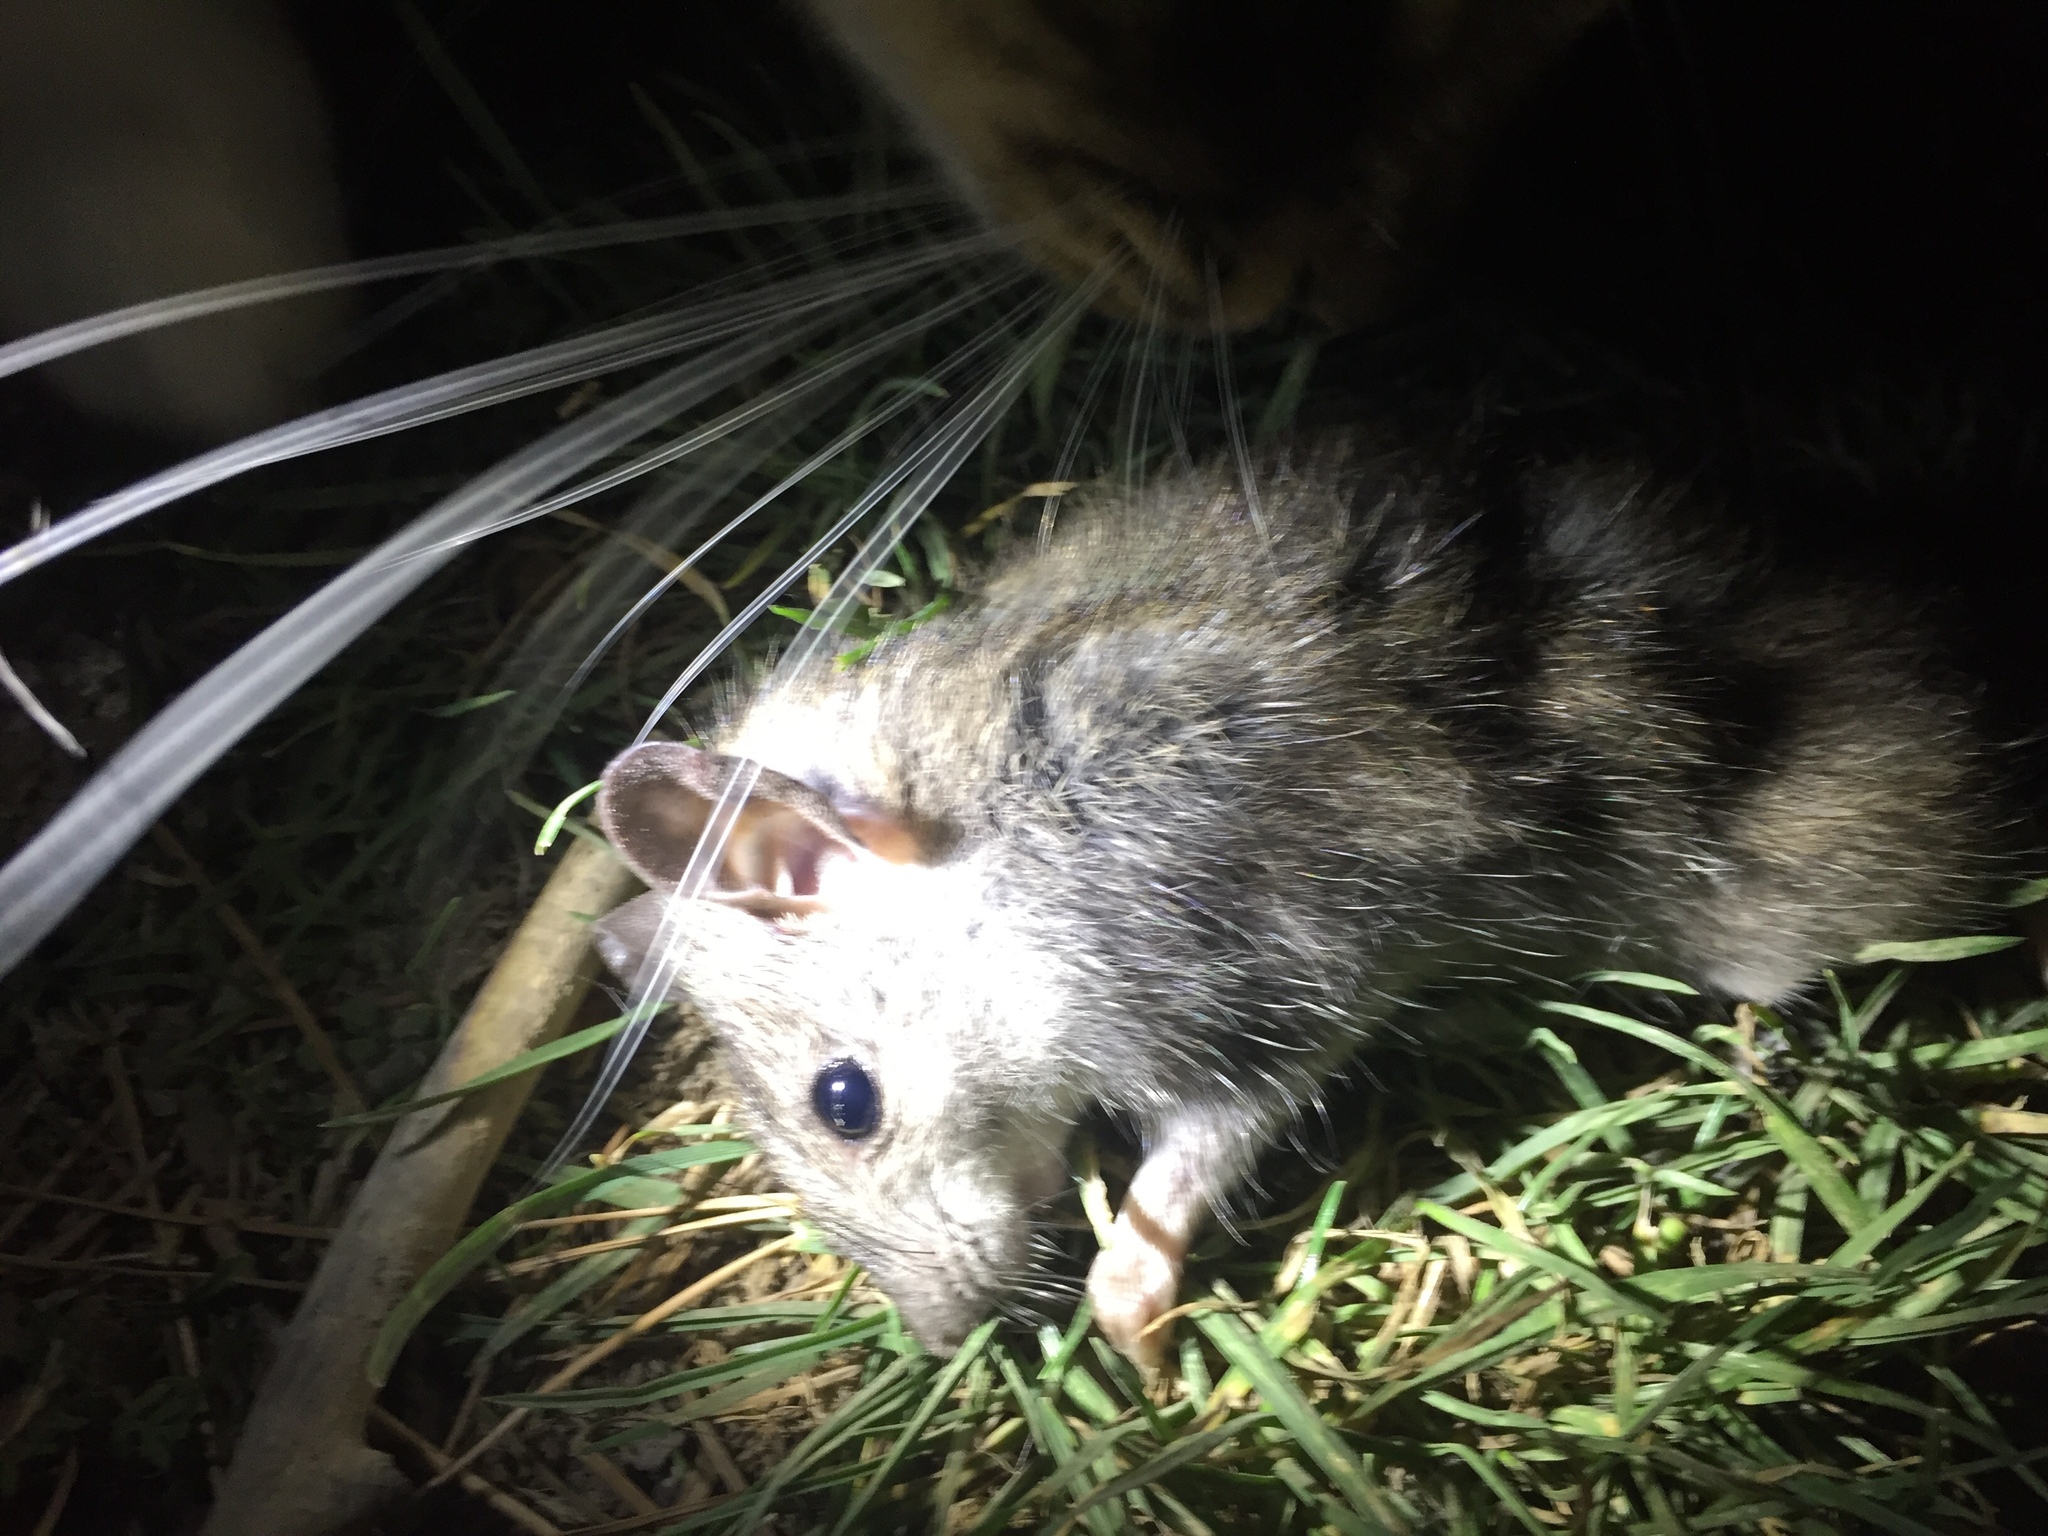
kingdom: Animalia
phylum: Chordata
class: Mammalia
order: Rodentia
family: Muridae
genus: Rattus
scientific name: Rattus rattus
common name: Black rat
